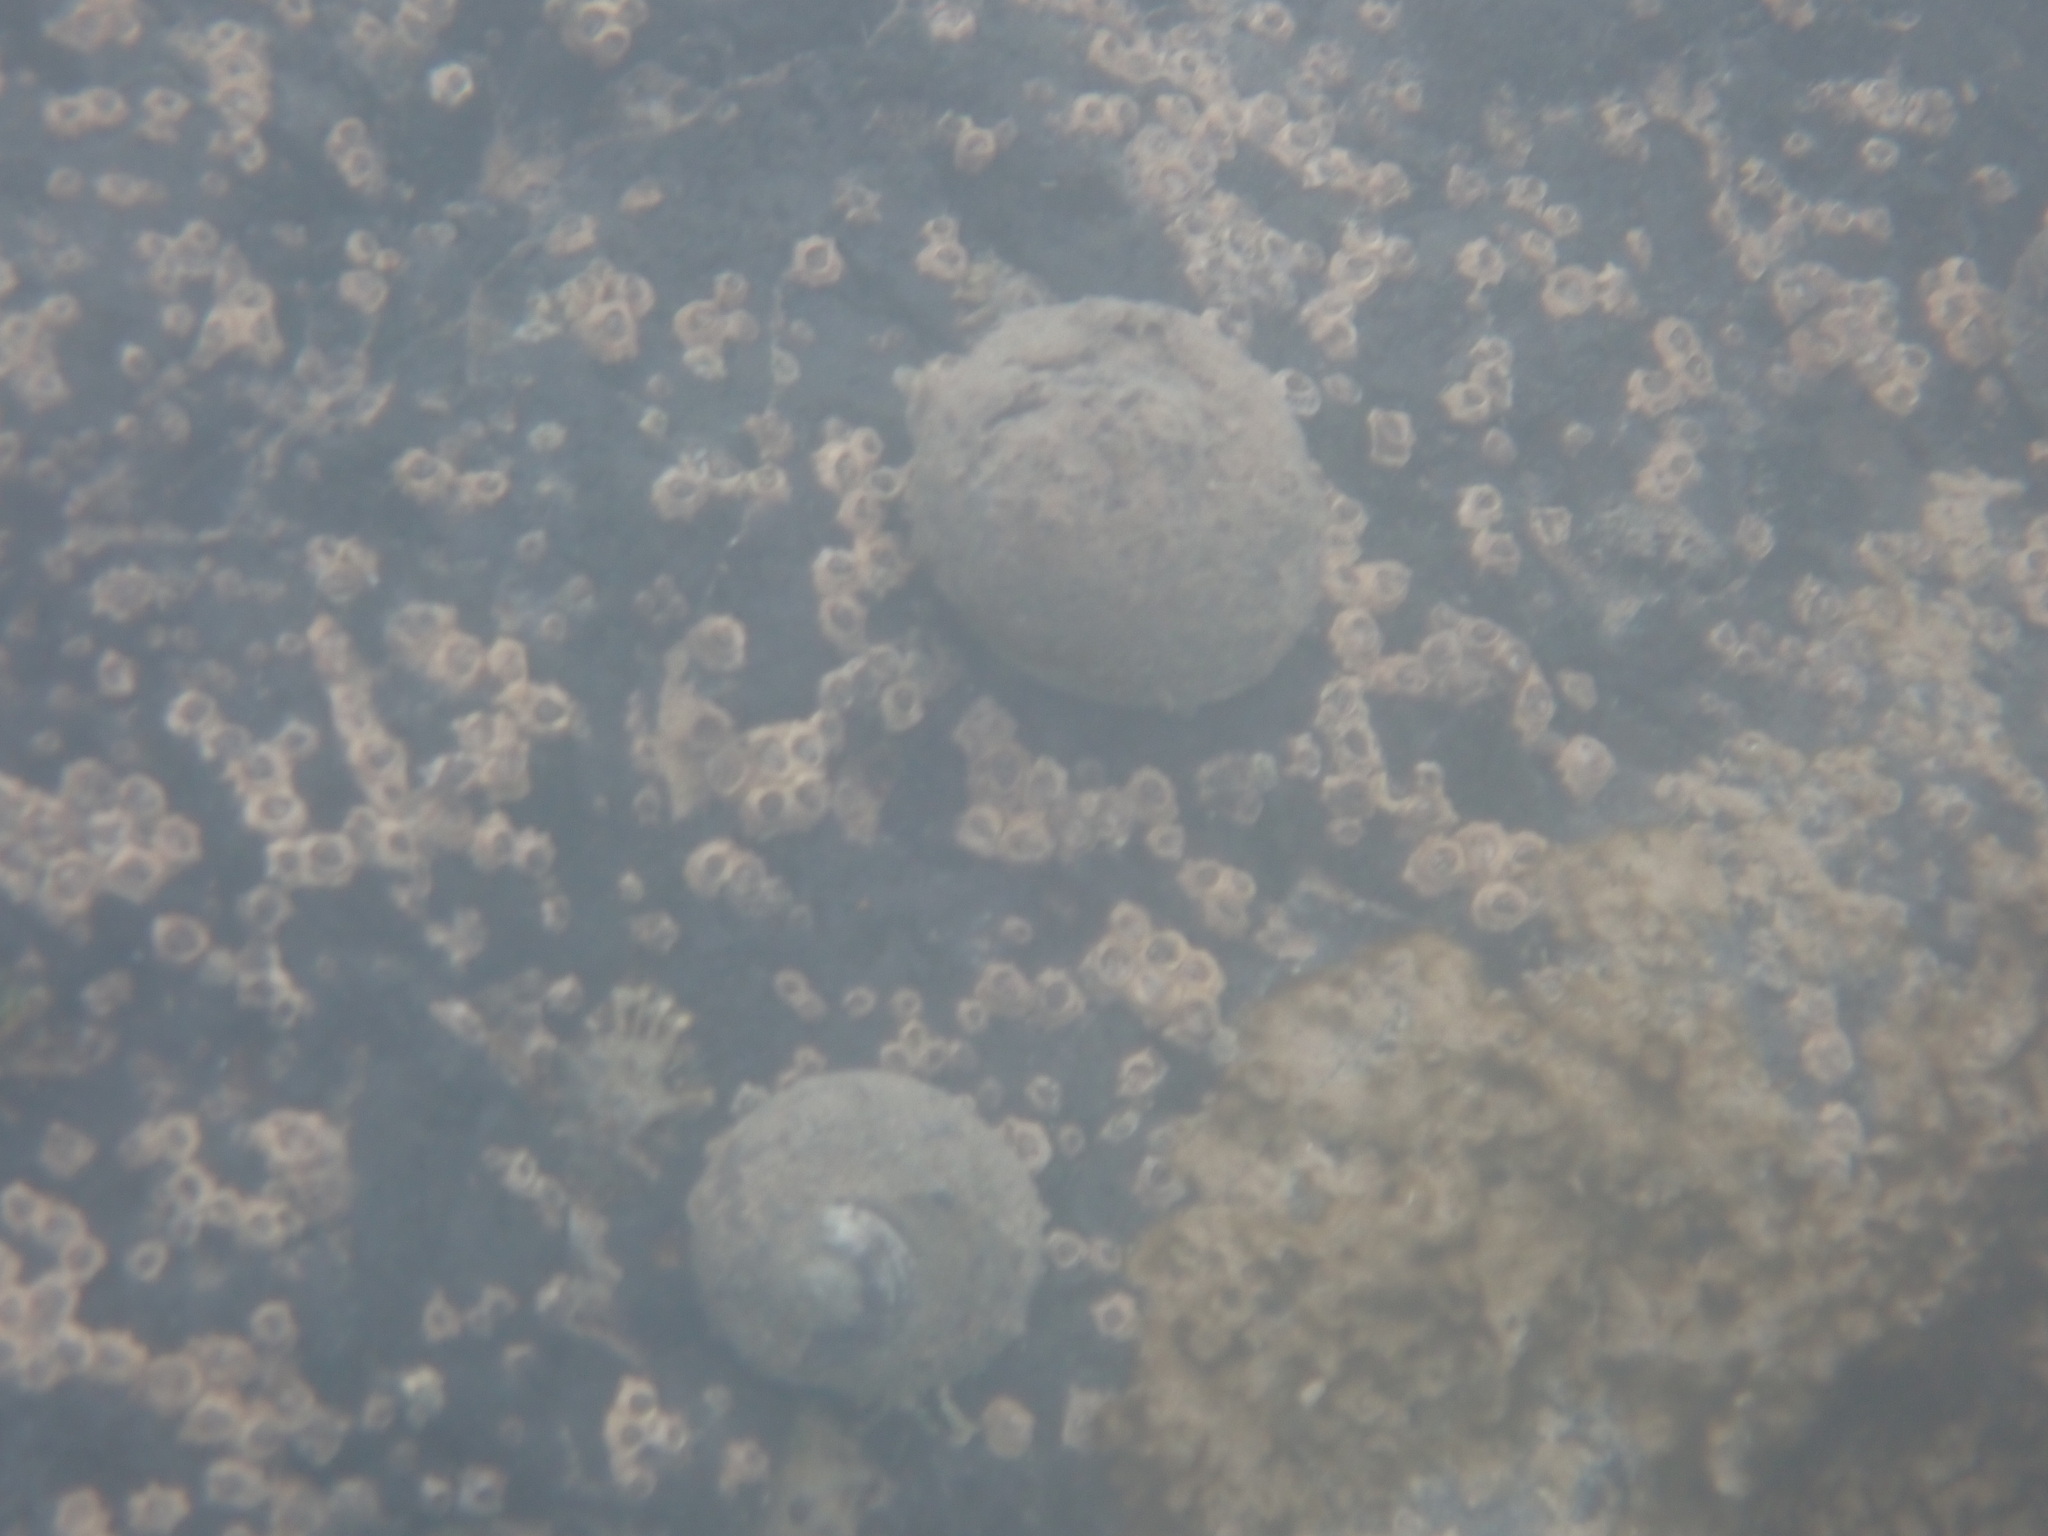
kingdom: Animalia
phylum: Mollusca
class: Gastropoda
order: Trochida
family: Trochidae
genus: Diloma
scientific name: Diloma aethiops
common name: Scorched monodont
